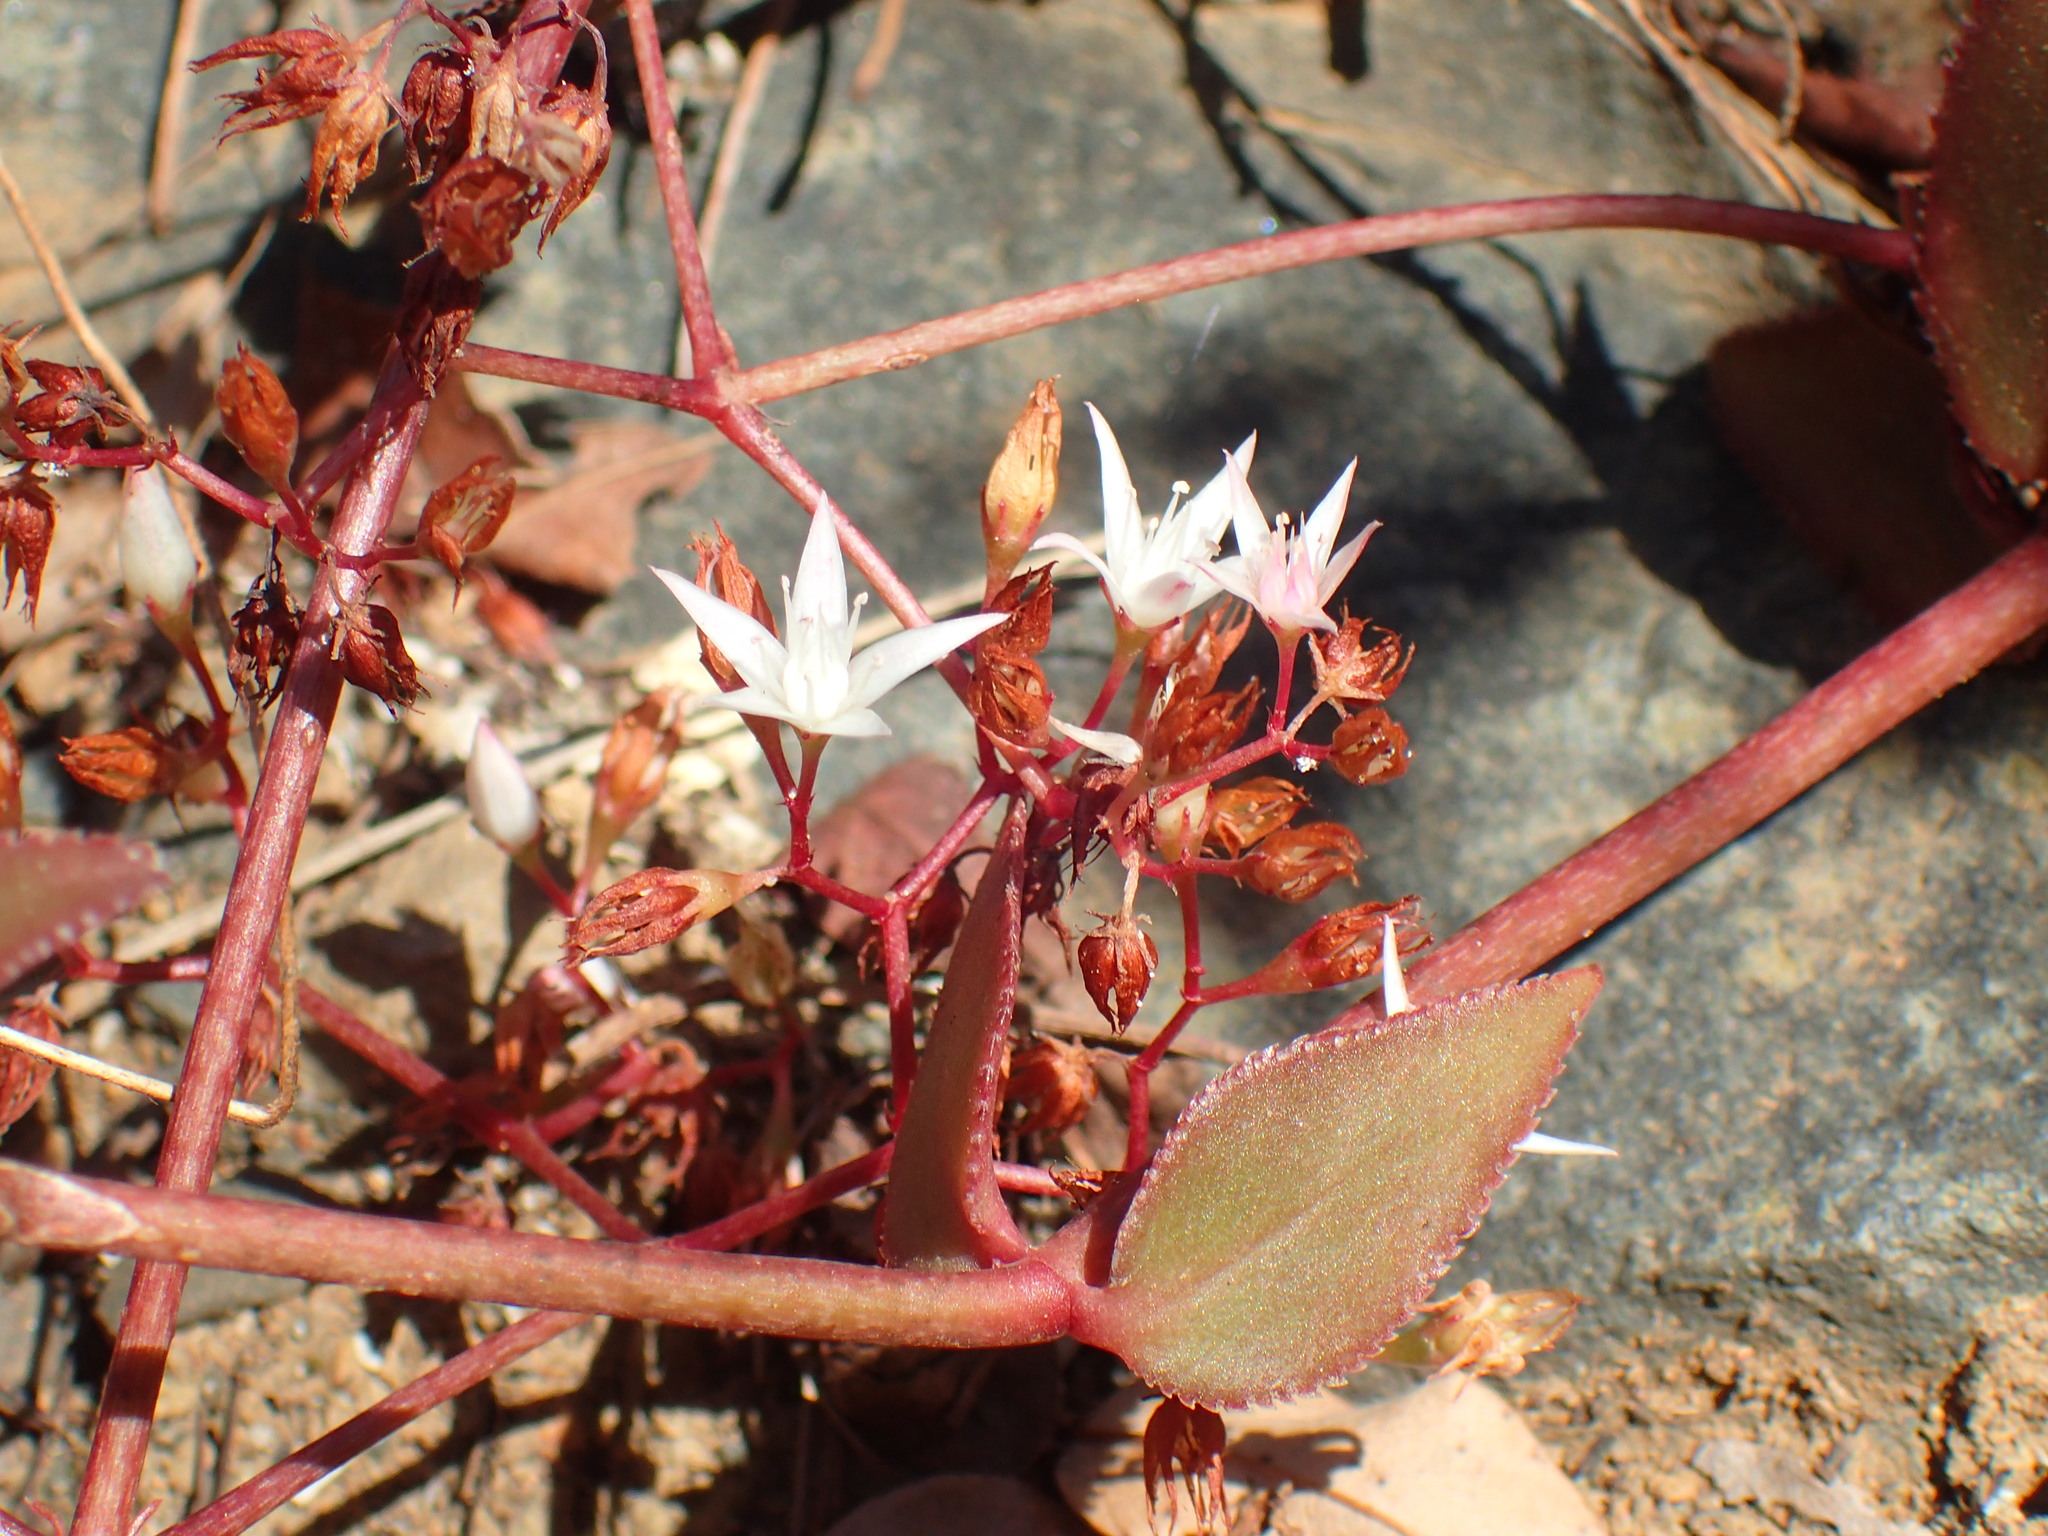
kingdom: Plantae
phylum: Tracheophyta
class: Magnoliopsida
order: Saxifragales
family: Crassulaceae
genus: Crassula
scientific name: Crassula sarmentosa
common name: Jade-tree
